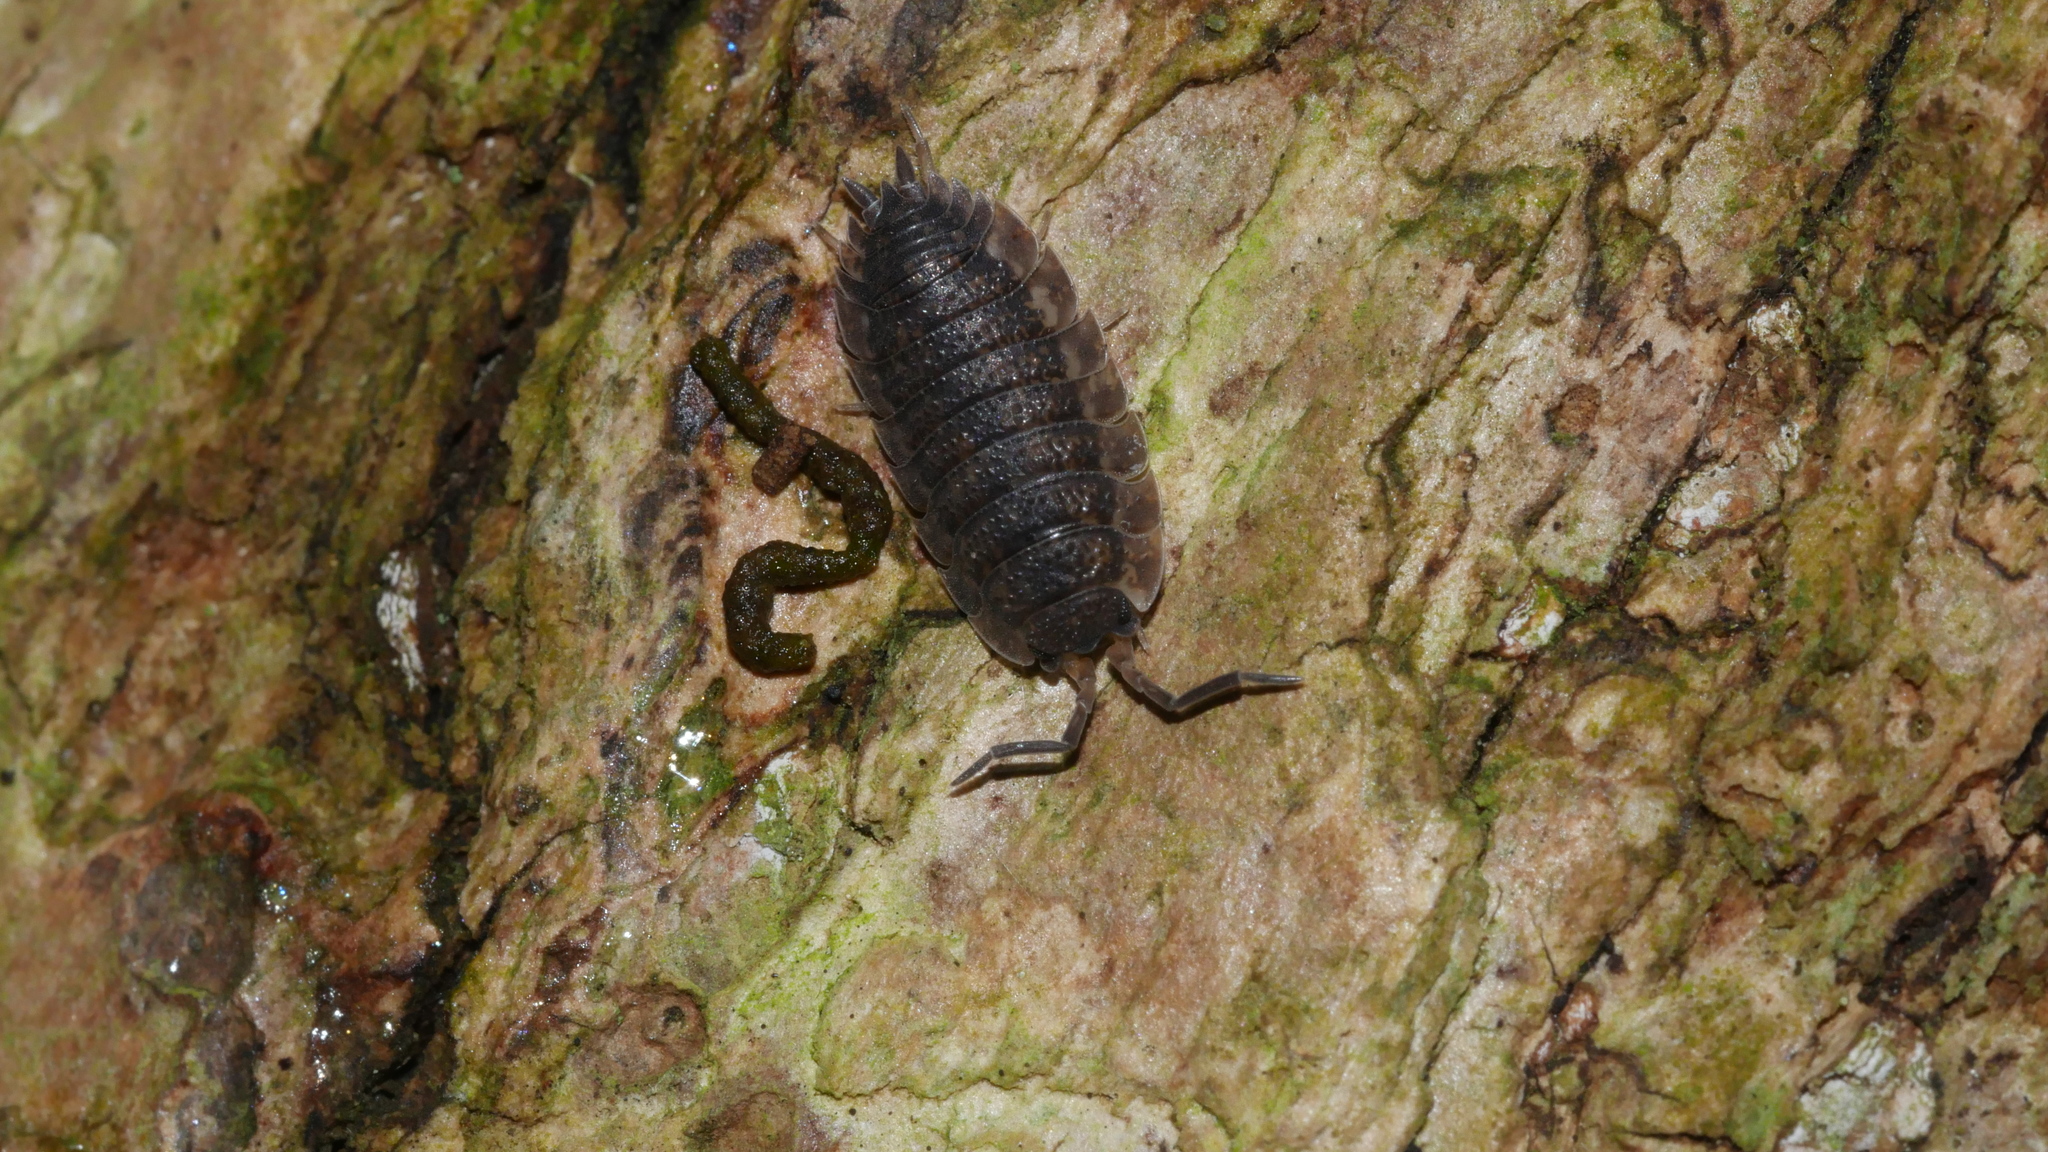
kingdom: Animalia
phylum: Arthropoda
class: Malacostraca
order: Isopoda
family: Porcellionidae
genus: Porcellio
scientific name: Porcellio scaber
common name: Common rough woodlouse
